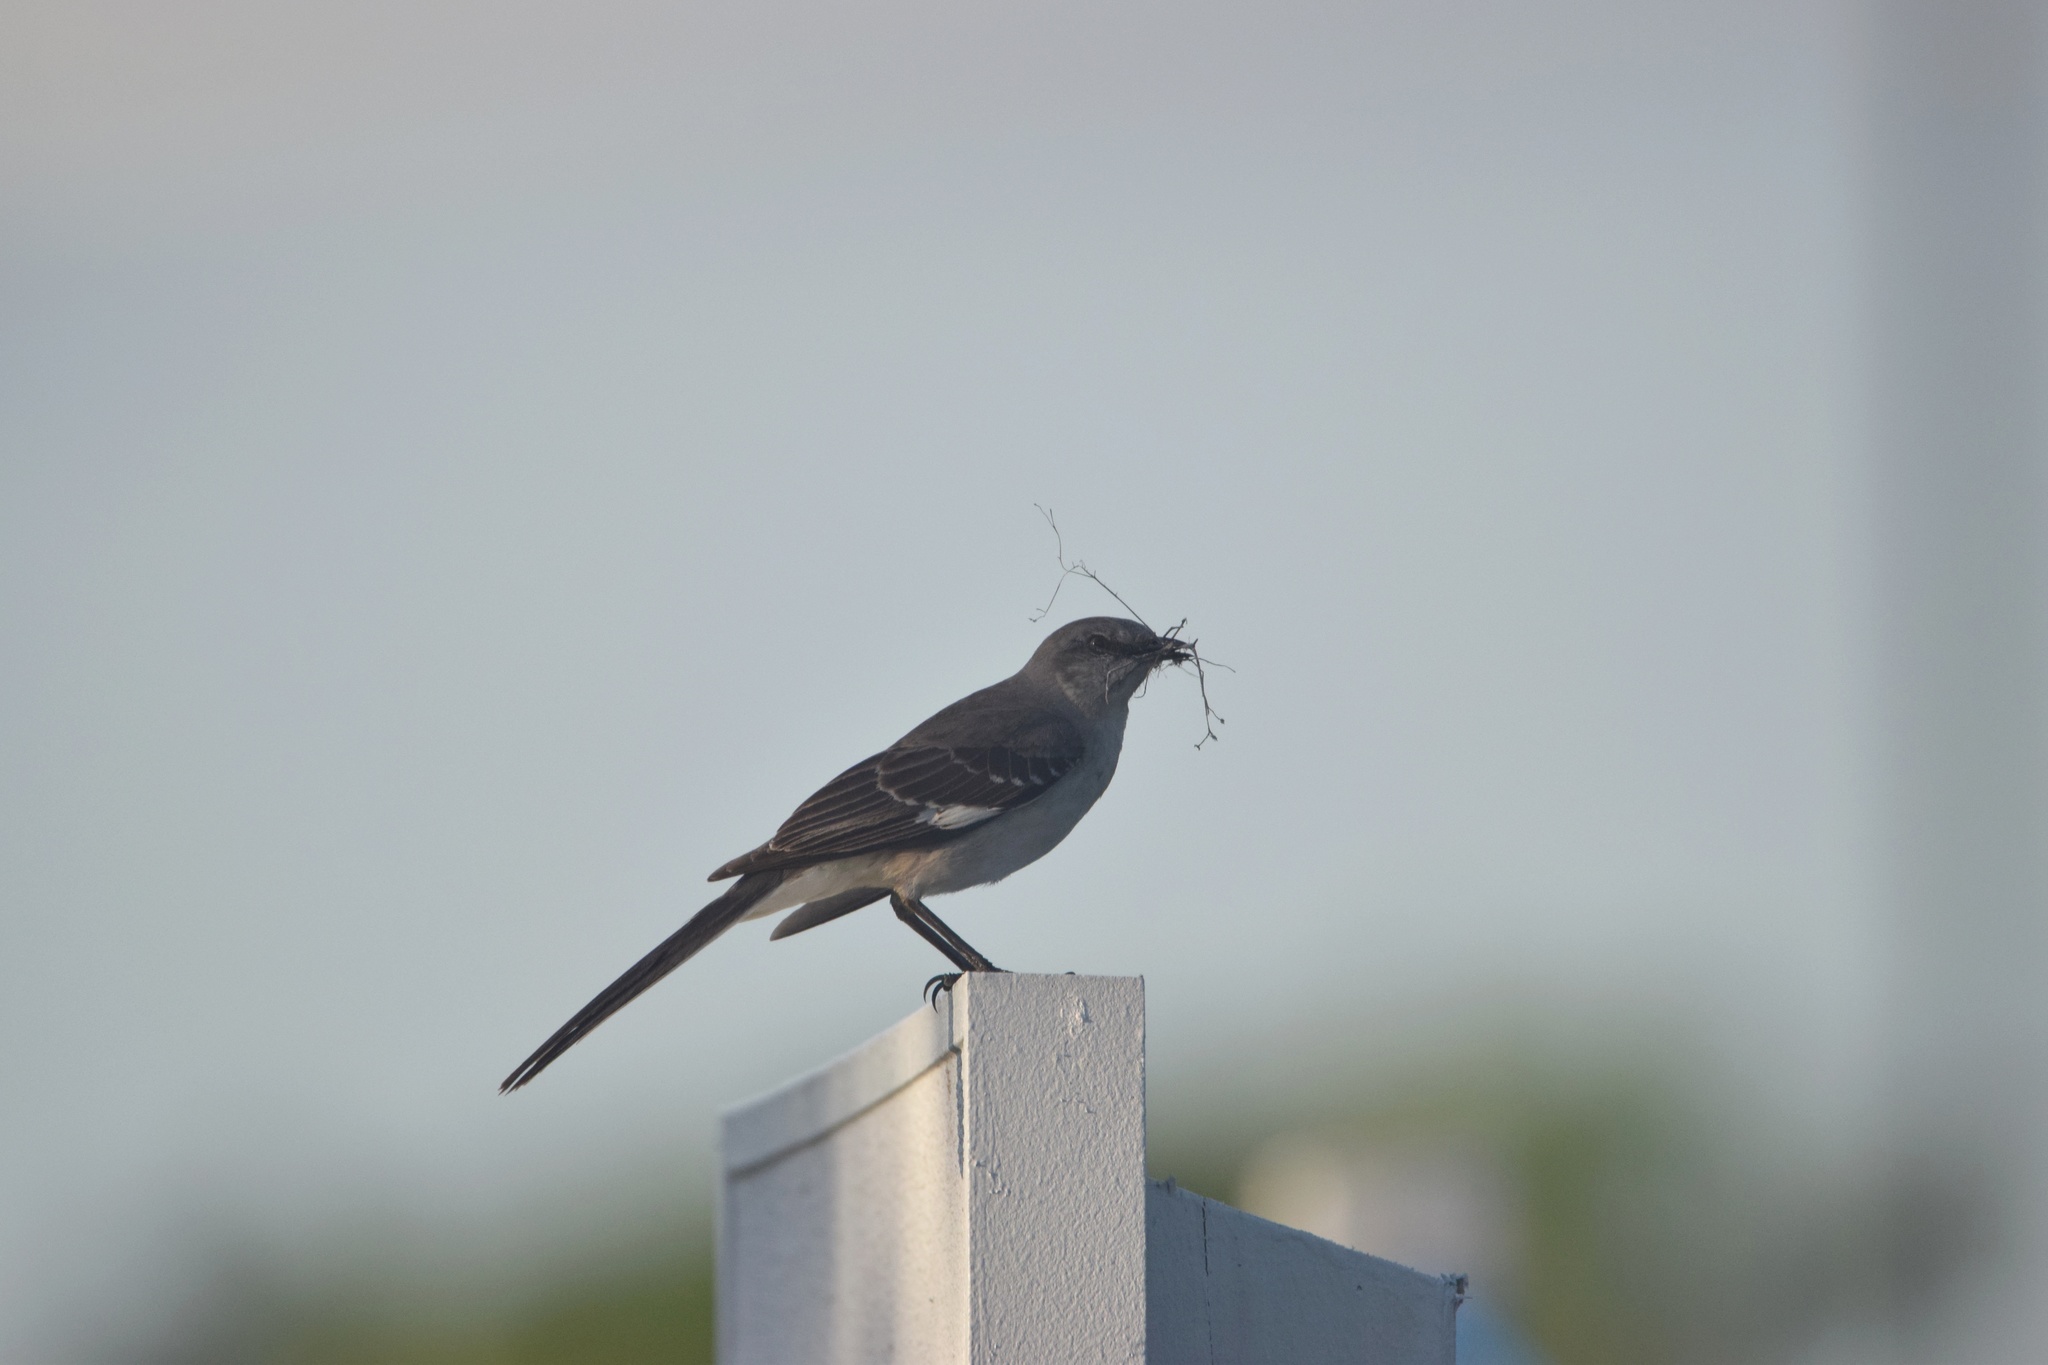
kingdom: Animalia
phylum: Chordata
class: Aves
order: Passeriformes
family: Mimidae
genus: Mimus
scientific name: Mimus polyglottos
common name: Northern mockingbird
